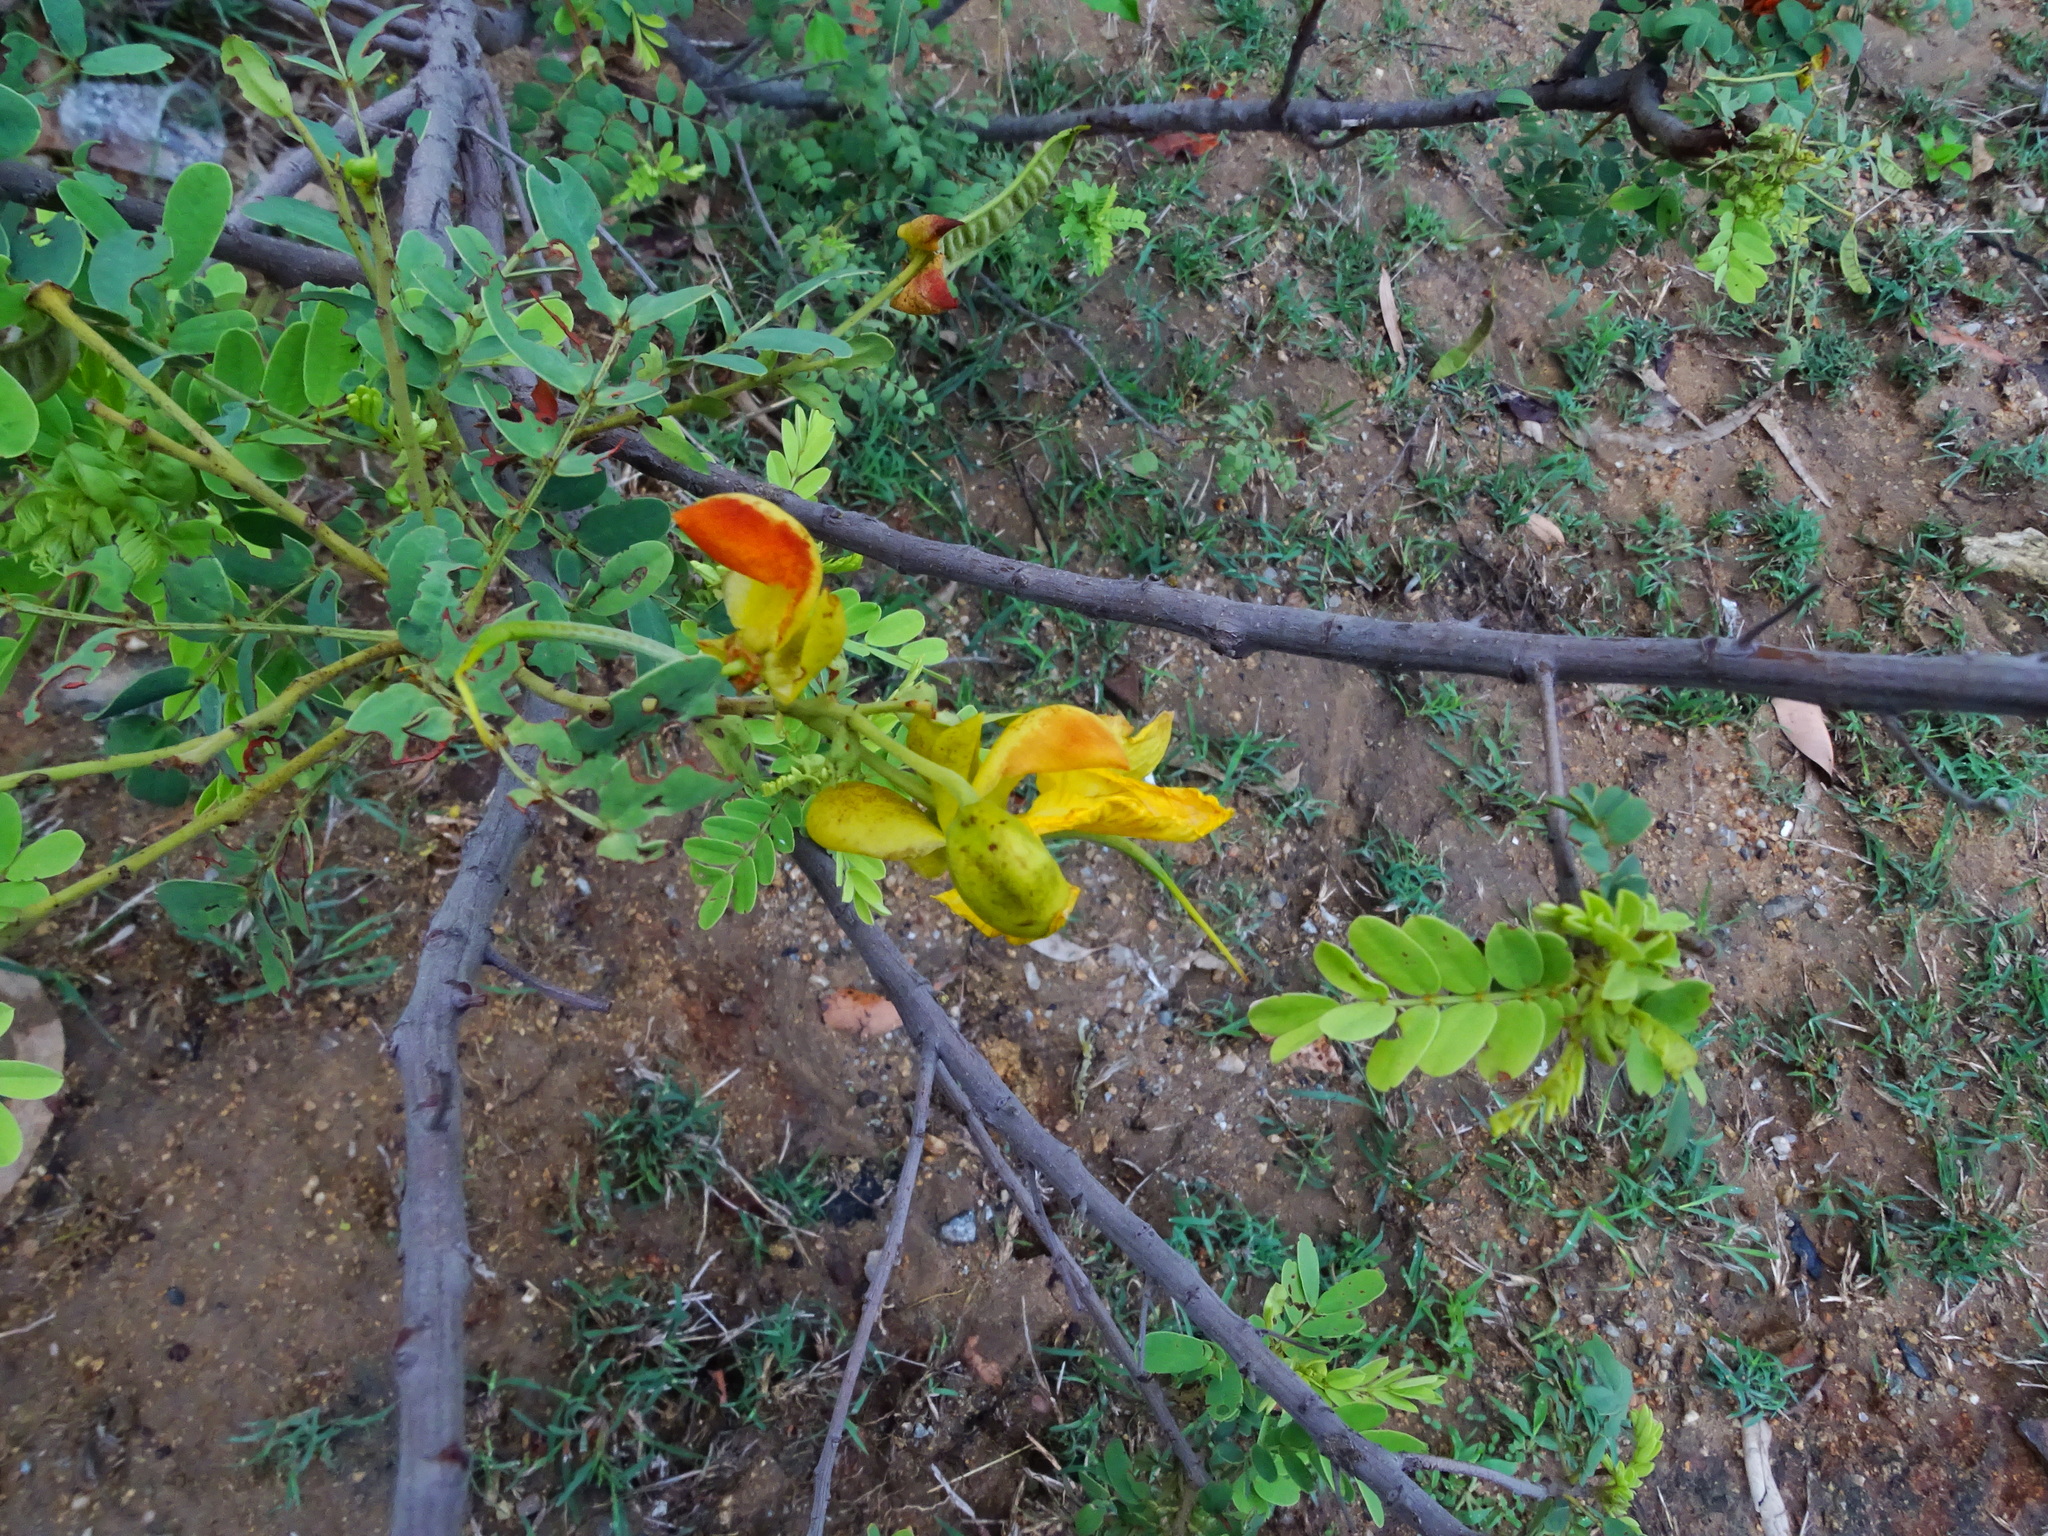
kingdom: Plantae
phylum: Tracheophyta
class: Magnoliopsida
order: Fabales
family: Fabaceae
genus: Senna
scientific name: Senna montana
